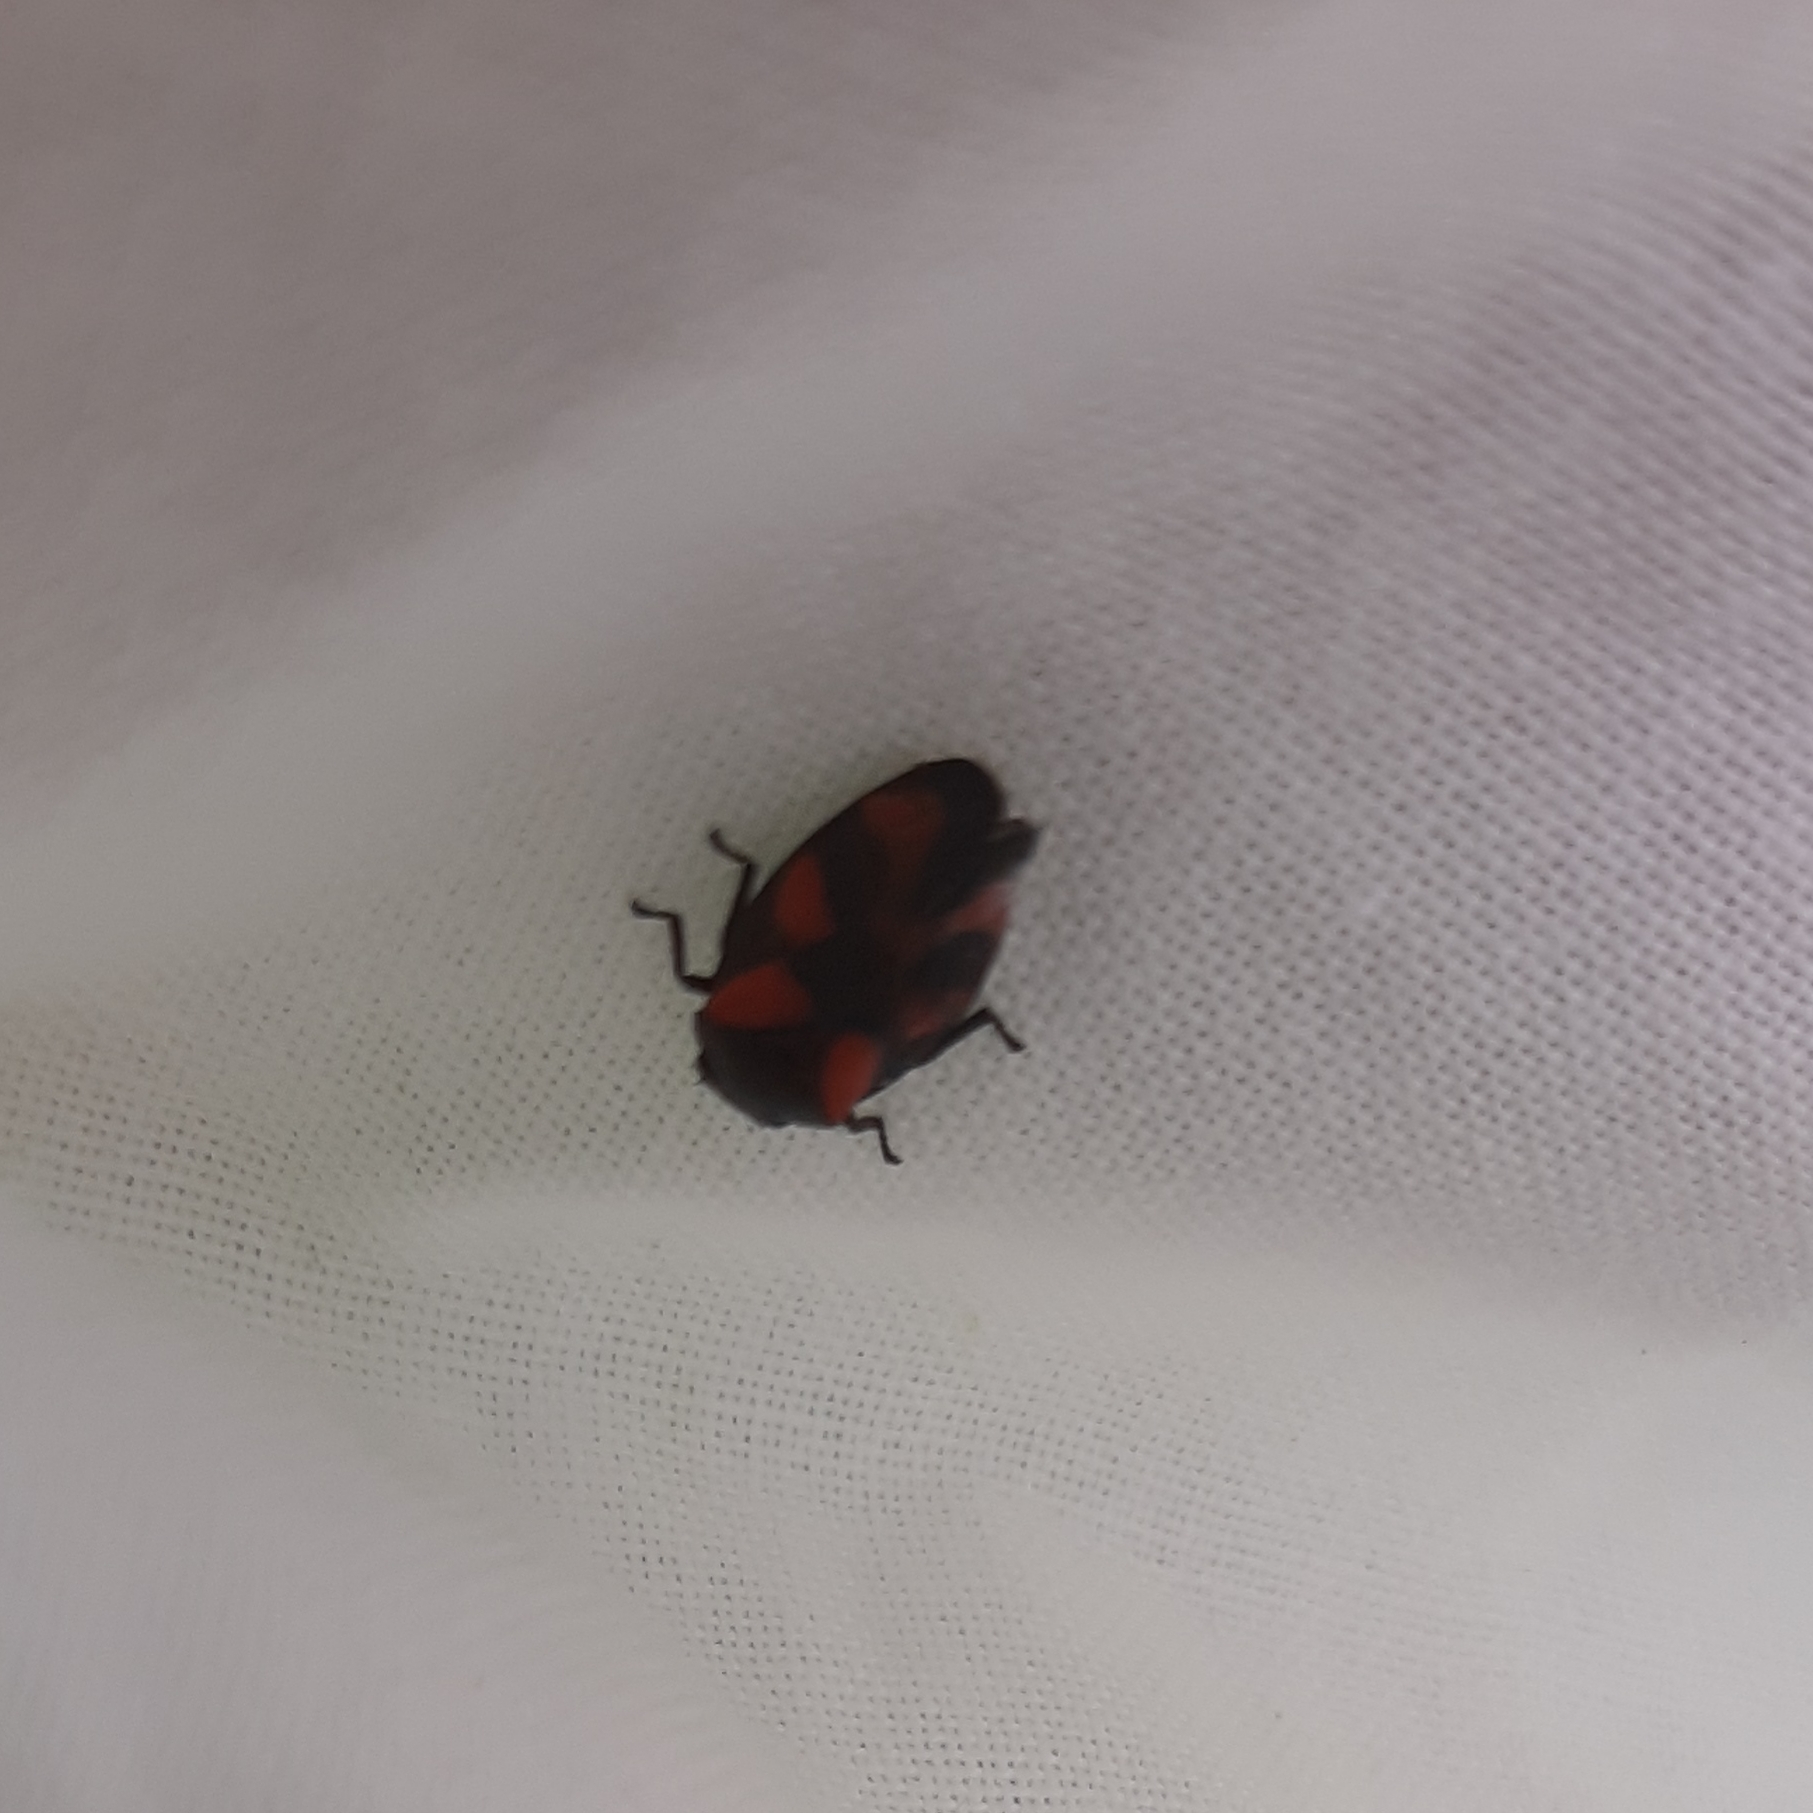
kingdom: Animalia
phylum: Arthropoda
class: Insecta
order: Hemiptera
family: Cercopidae
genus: Cercopis
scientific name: Cercopis vulnerata
